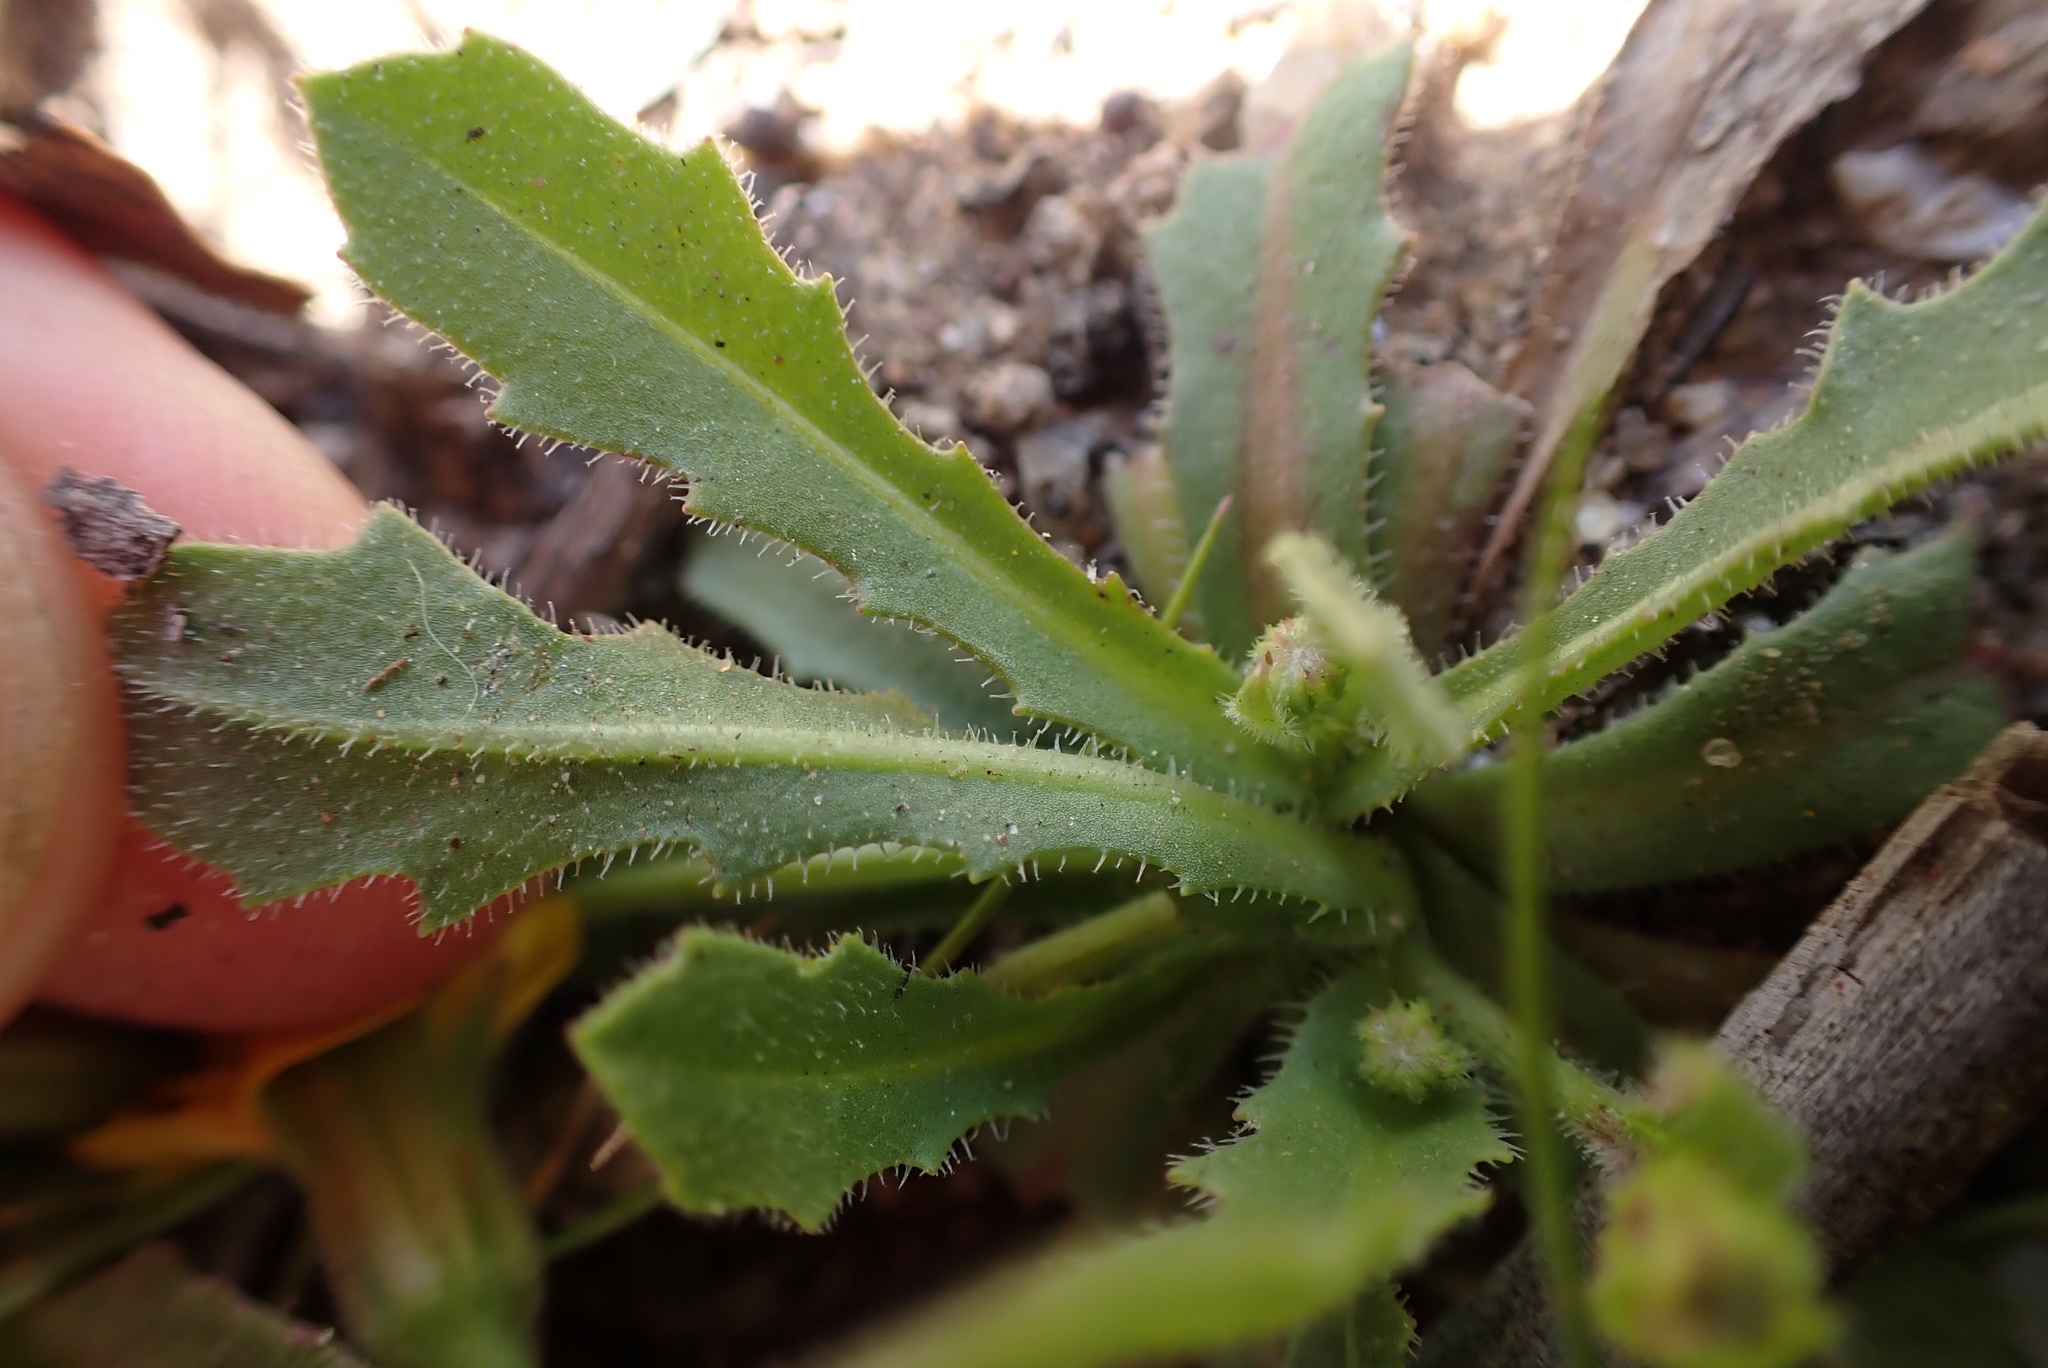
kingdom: Plantae
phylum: Tracheophyta
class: Magnoliopsida
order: Asterales
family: Asteraceae
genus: Hedypnois
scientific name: Hedypnois rhagadioloides
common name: Cretan weed
